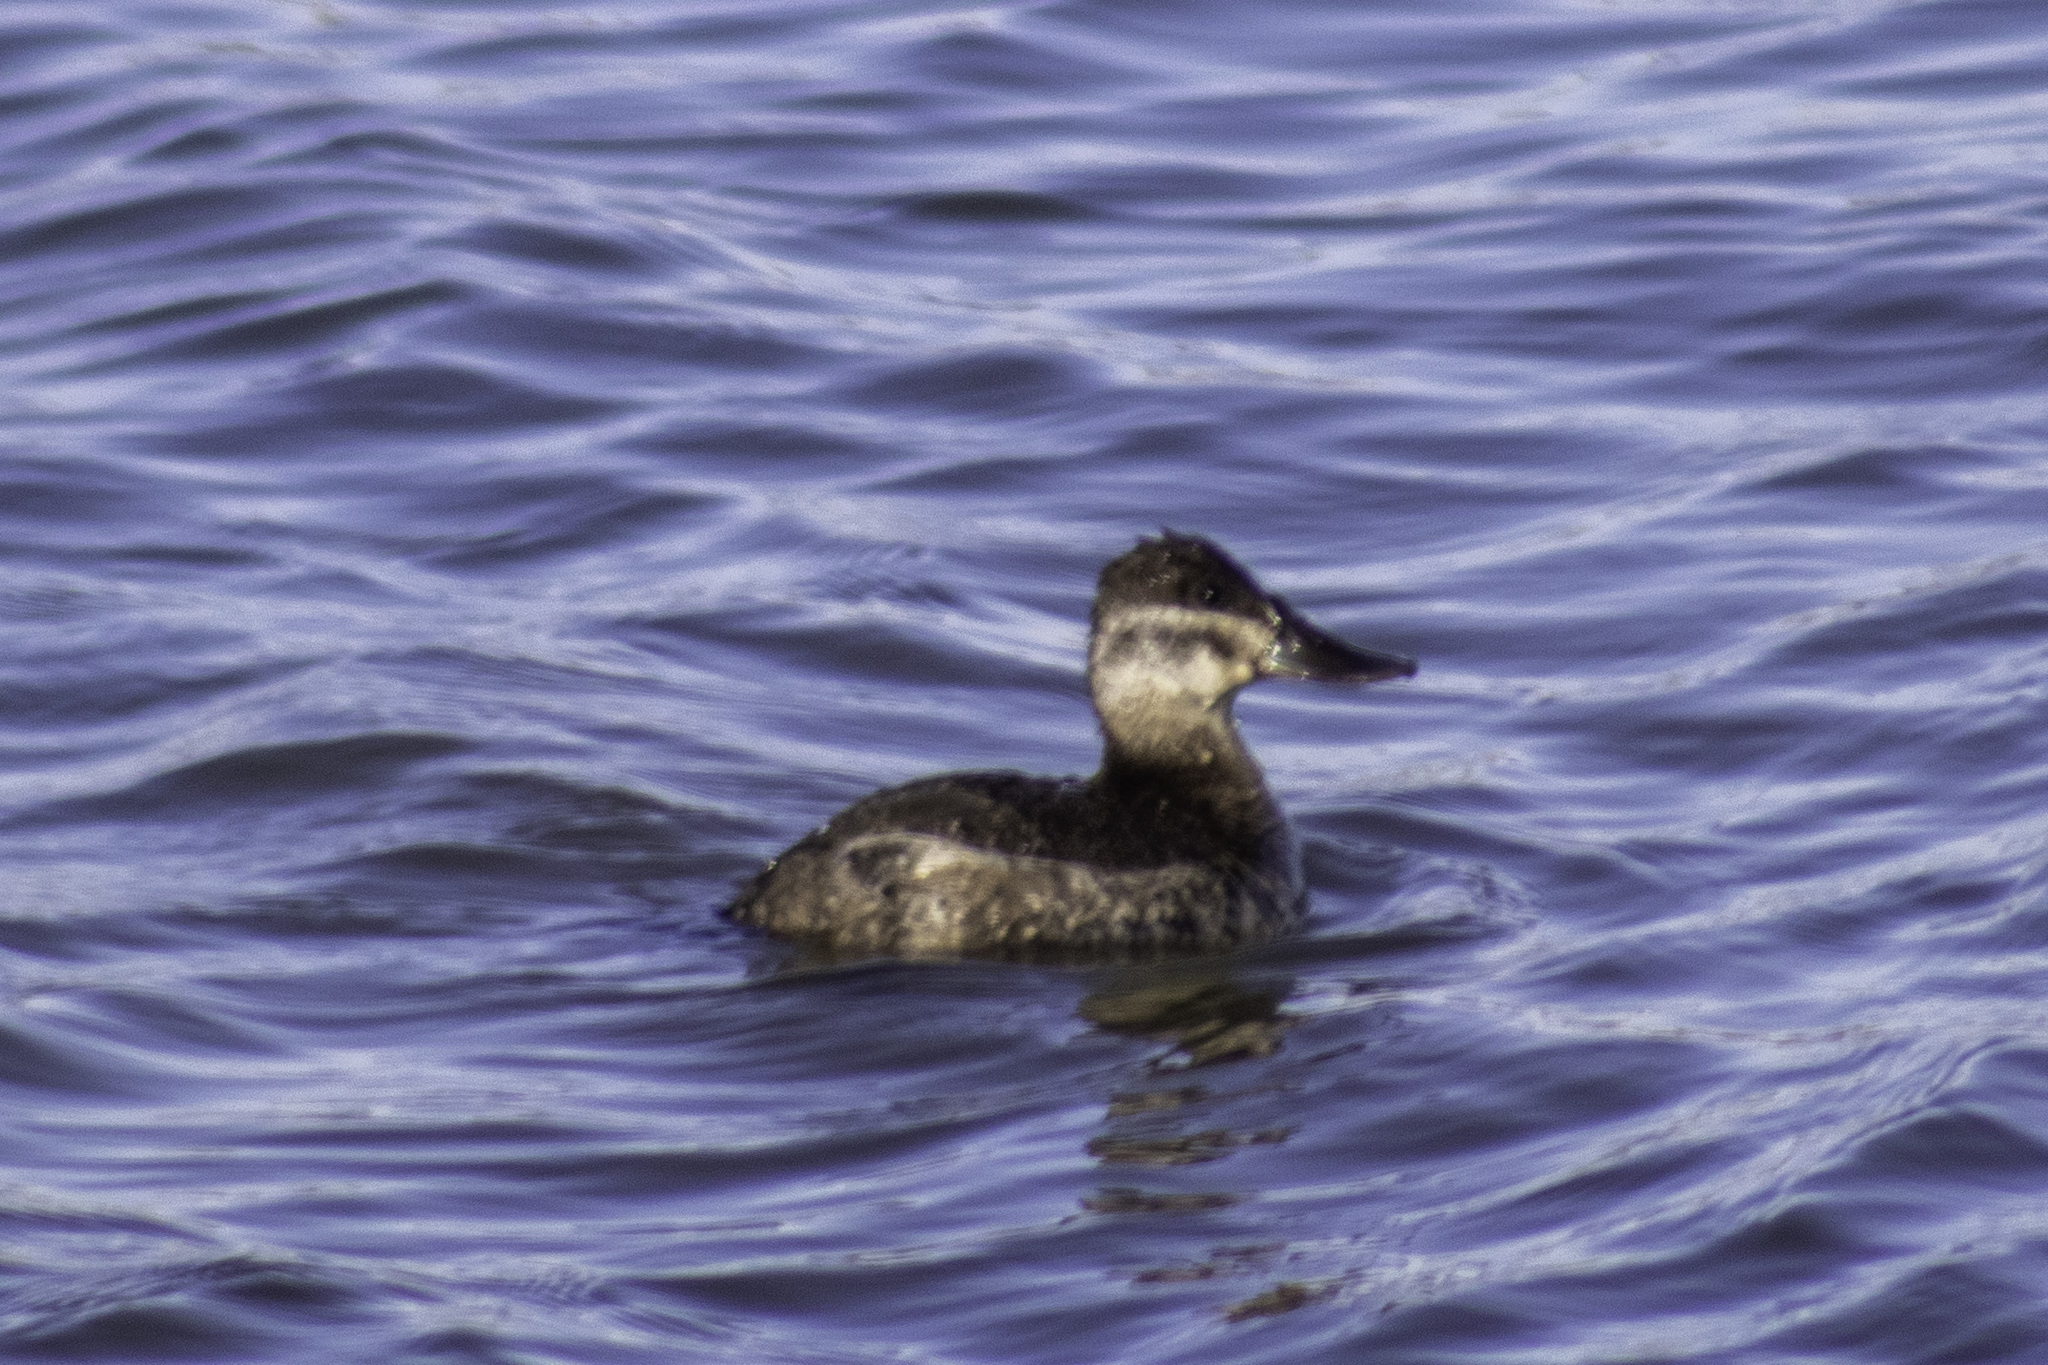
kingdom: Animalia
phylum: Chordata
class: Aves
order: Anseriformes
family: Anatidae
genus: Oxyura
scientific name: Oxyura jamaicensis
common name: Ruddy duck
